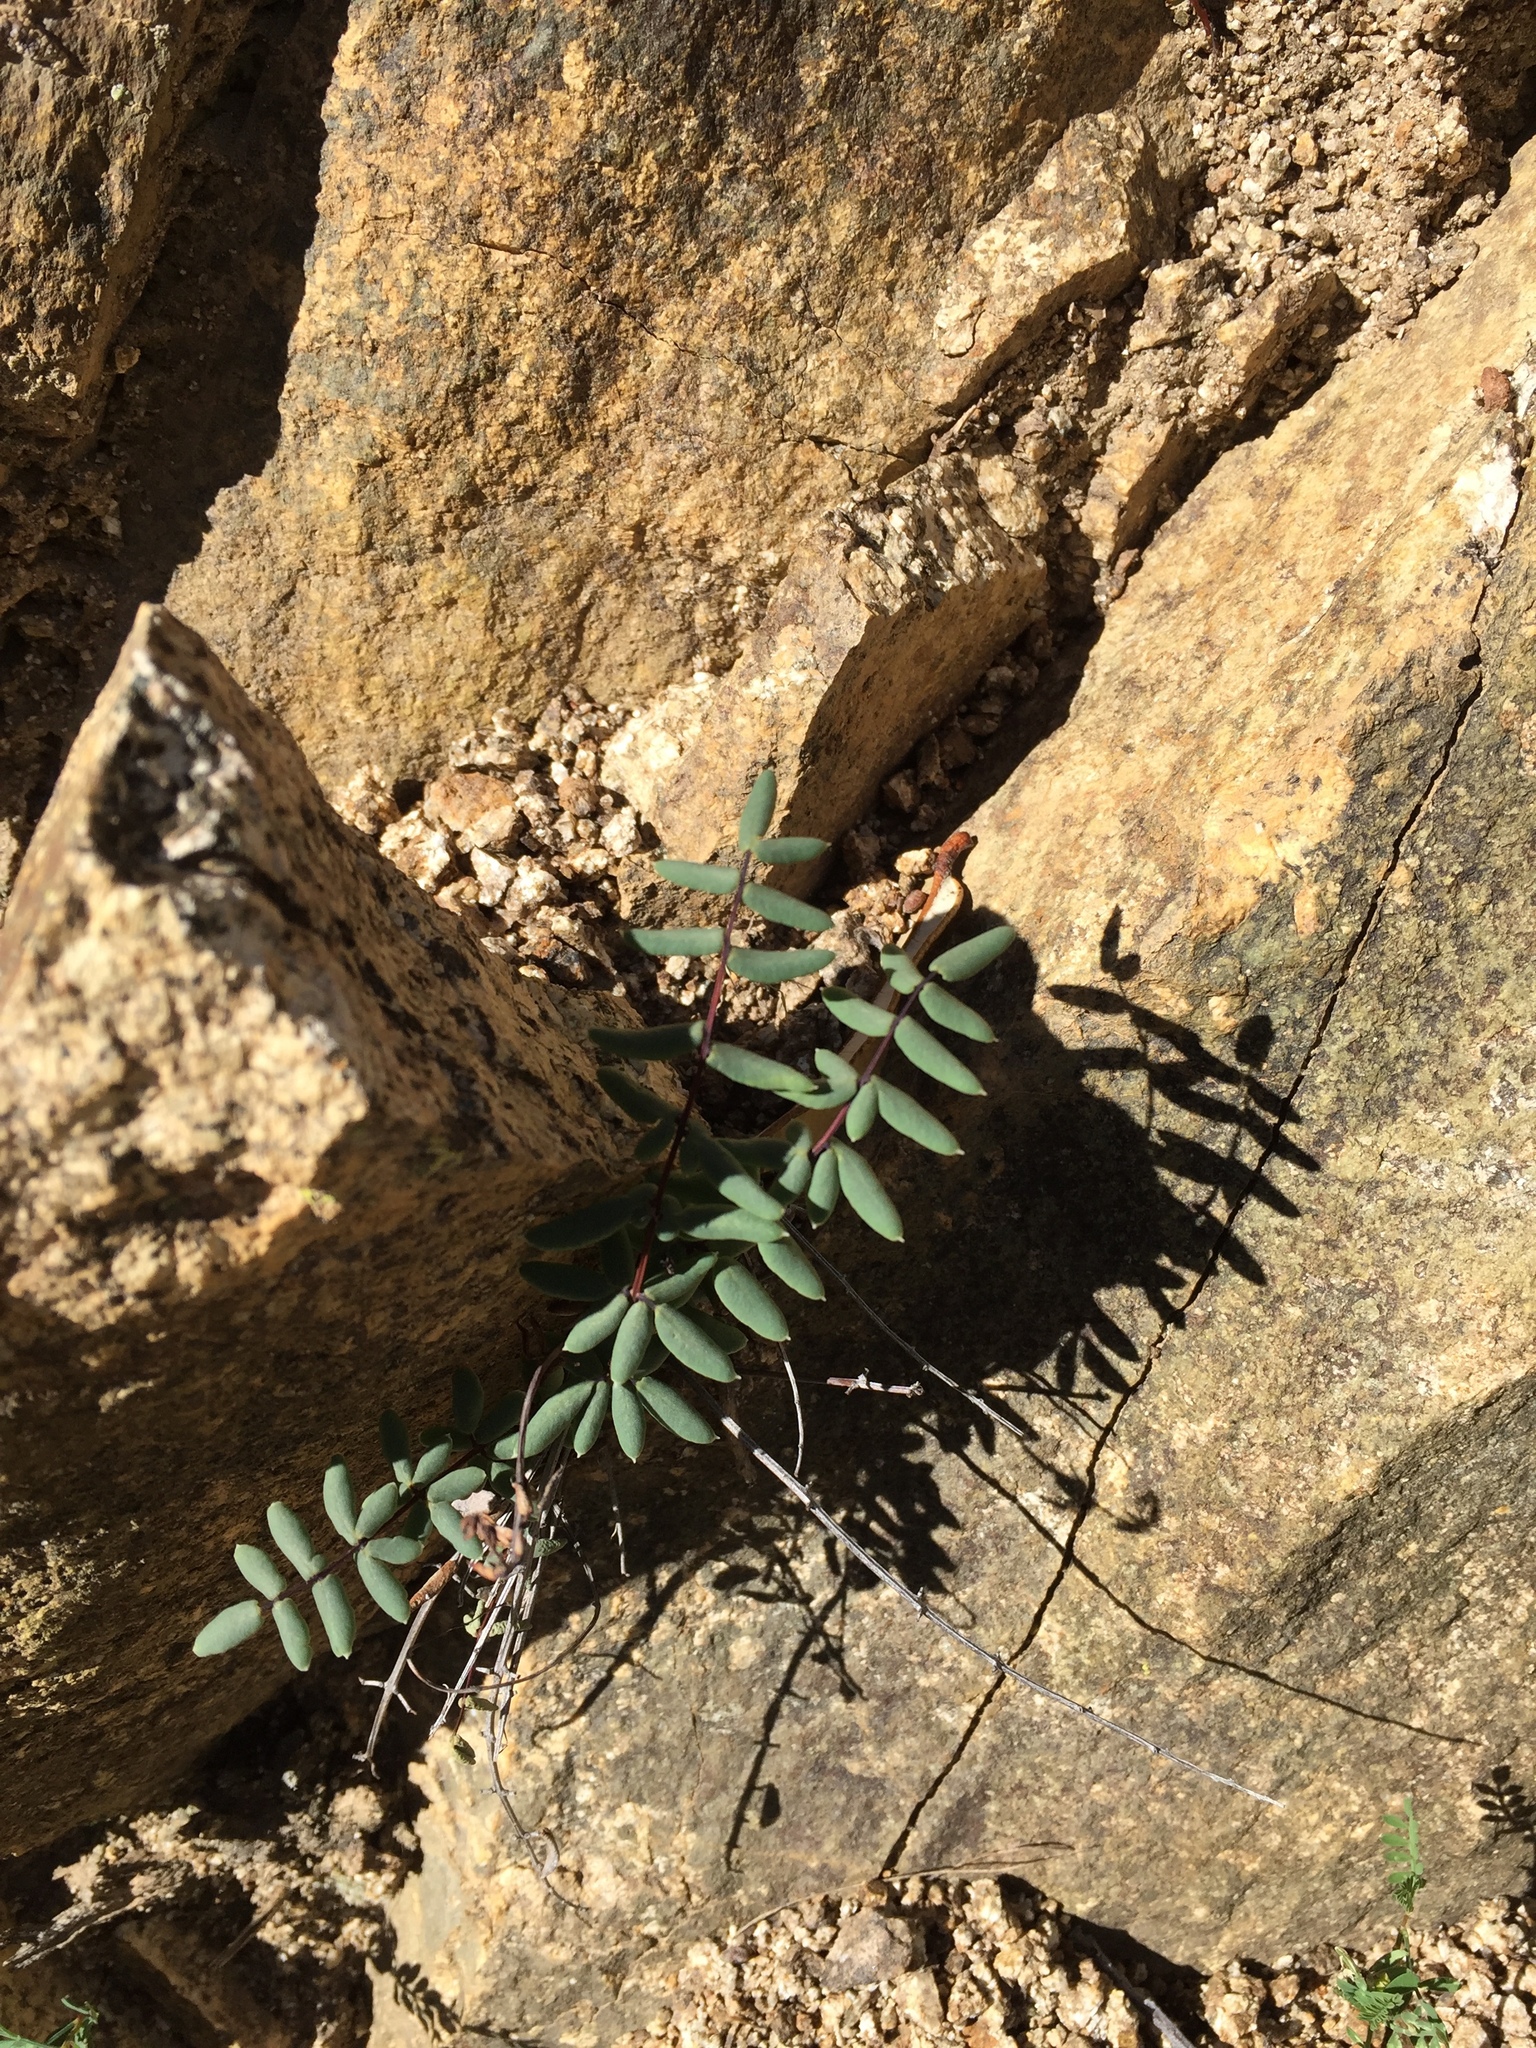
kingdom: Plantae
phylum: Tracheophyta
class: Polypodiopsida
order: Polypodiales
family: Pteridaceae
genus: Pellaea
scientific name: Pellaea wrightiana
